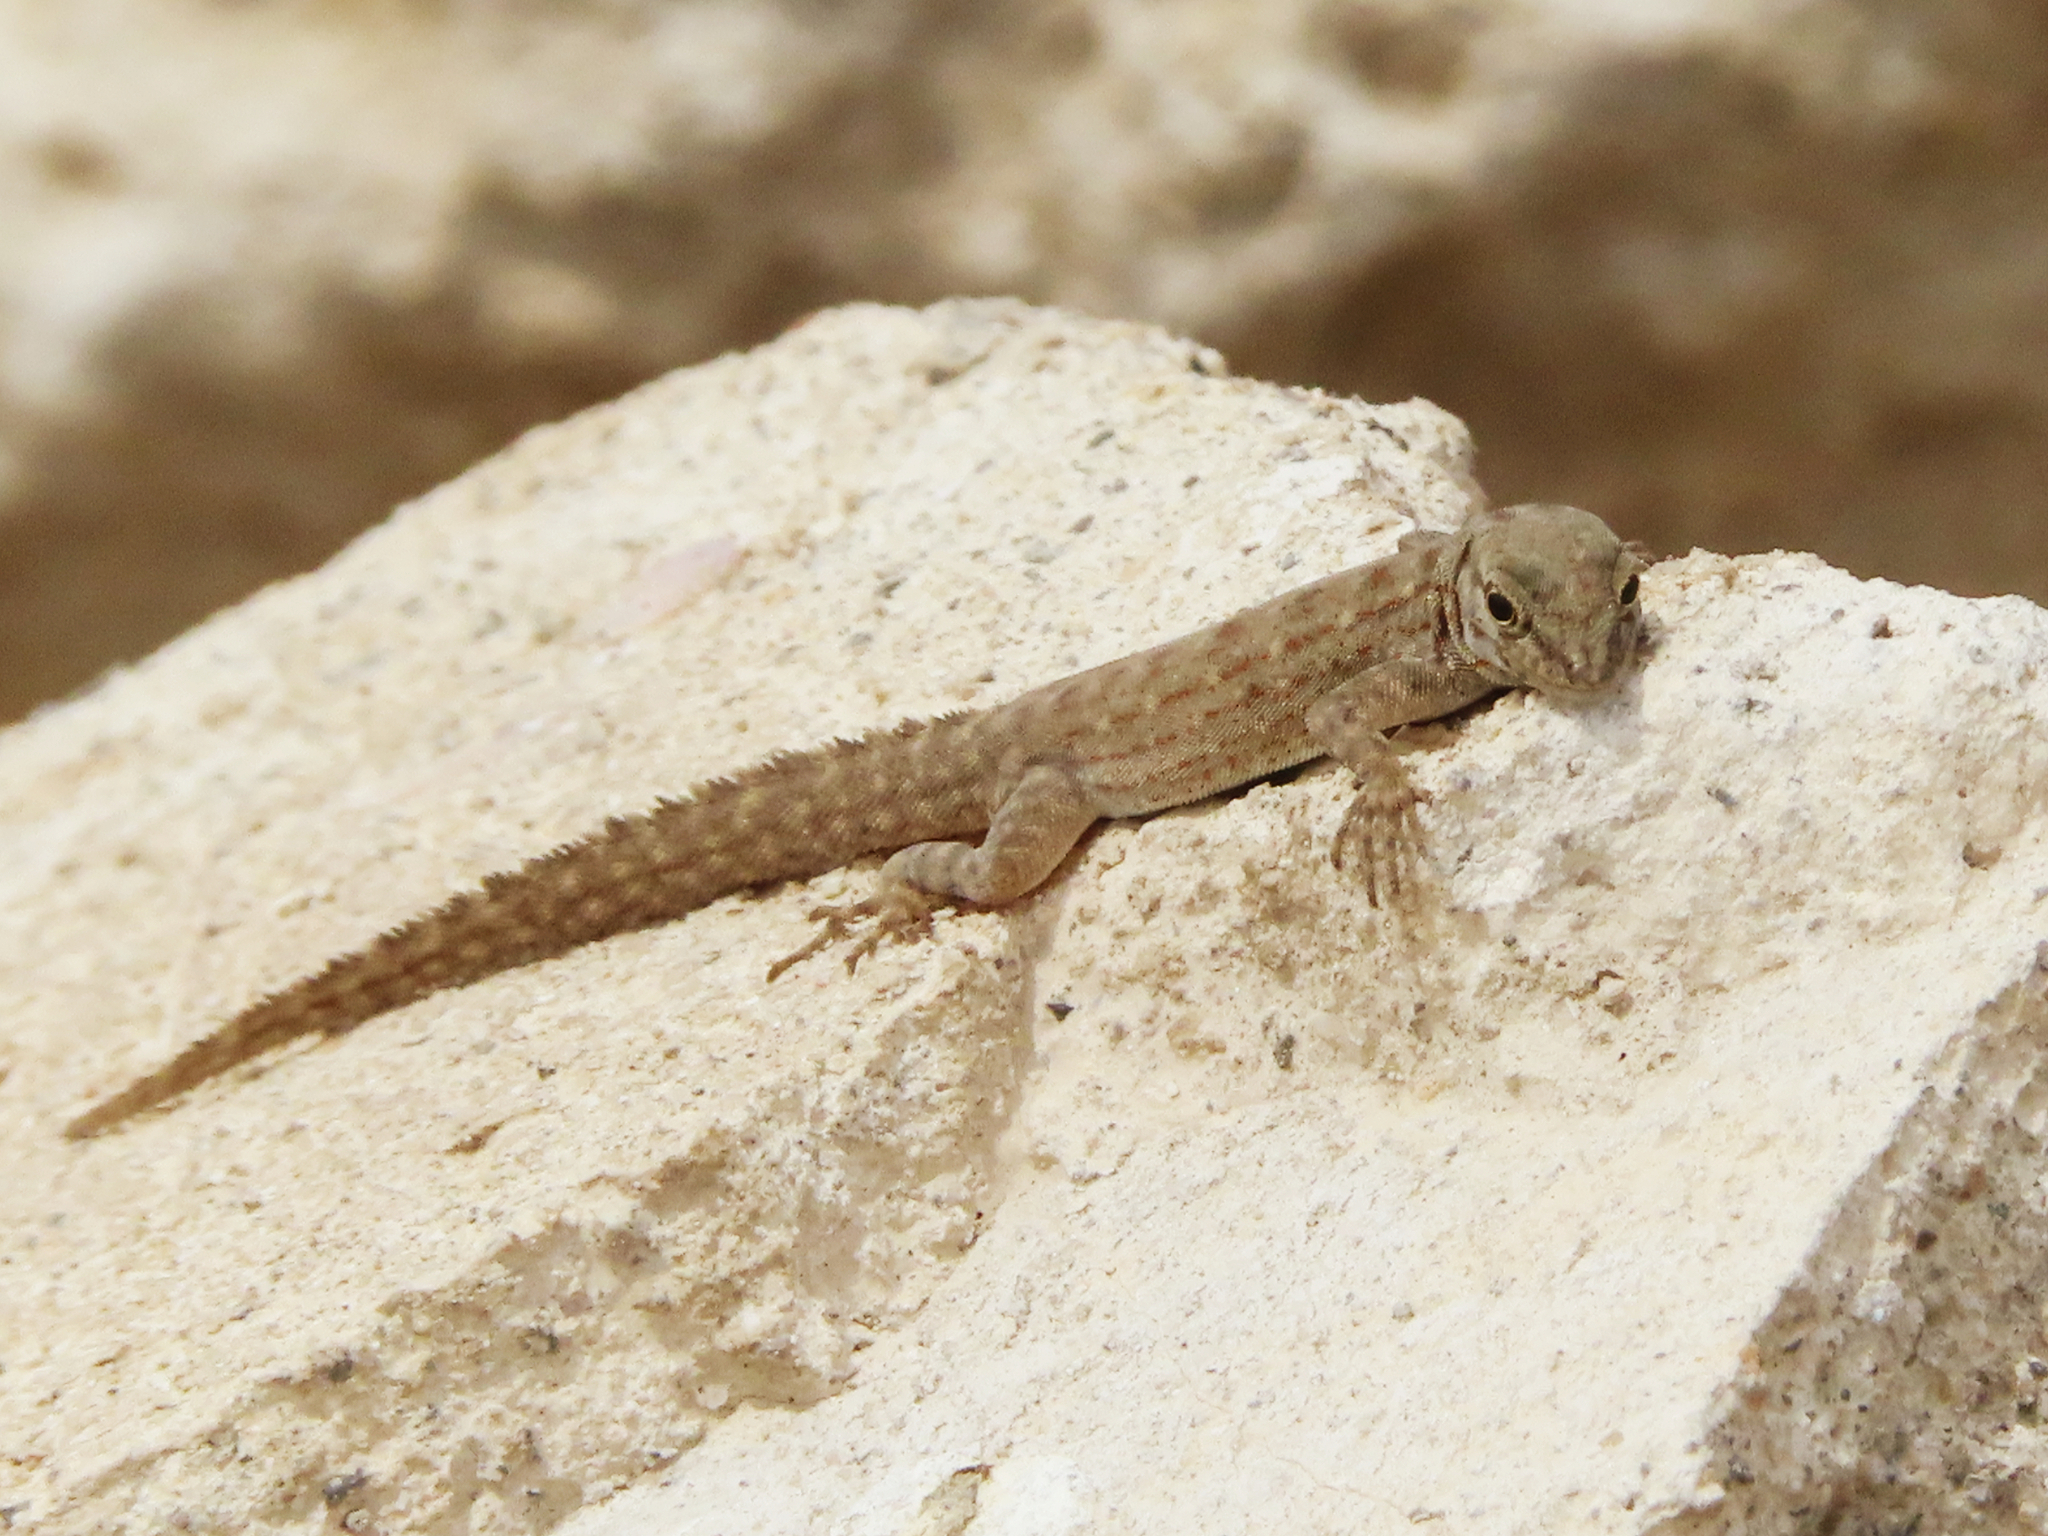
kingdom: Animalia
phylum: Chordata
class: Squamata
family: Sphaerodactylidae
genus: Pristurus
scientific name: Pristurus rupestris
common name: Blanford’s semaphore gecko
